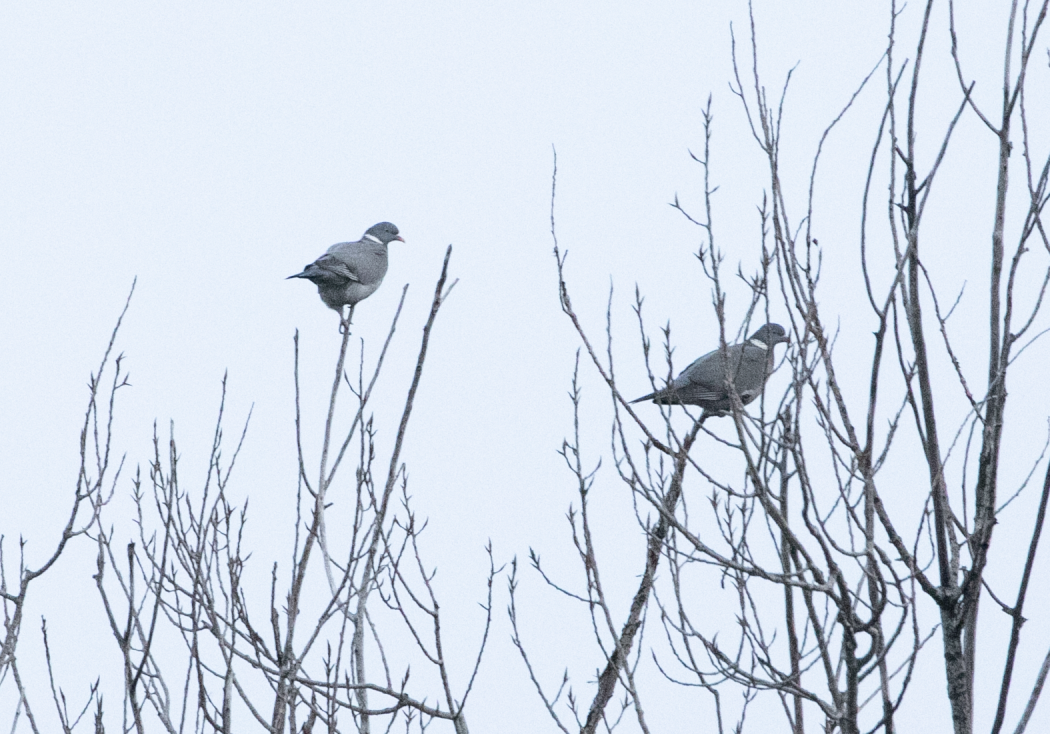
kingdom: Animalia
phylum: Chordata
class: Aves
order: Columbiformes
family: Columbidae
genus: Columba
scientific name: Columba palumbus
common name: Common wood pigeon
